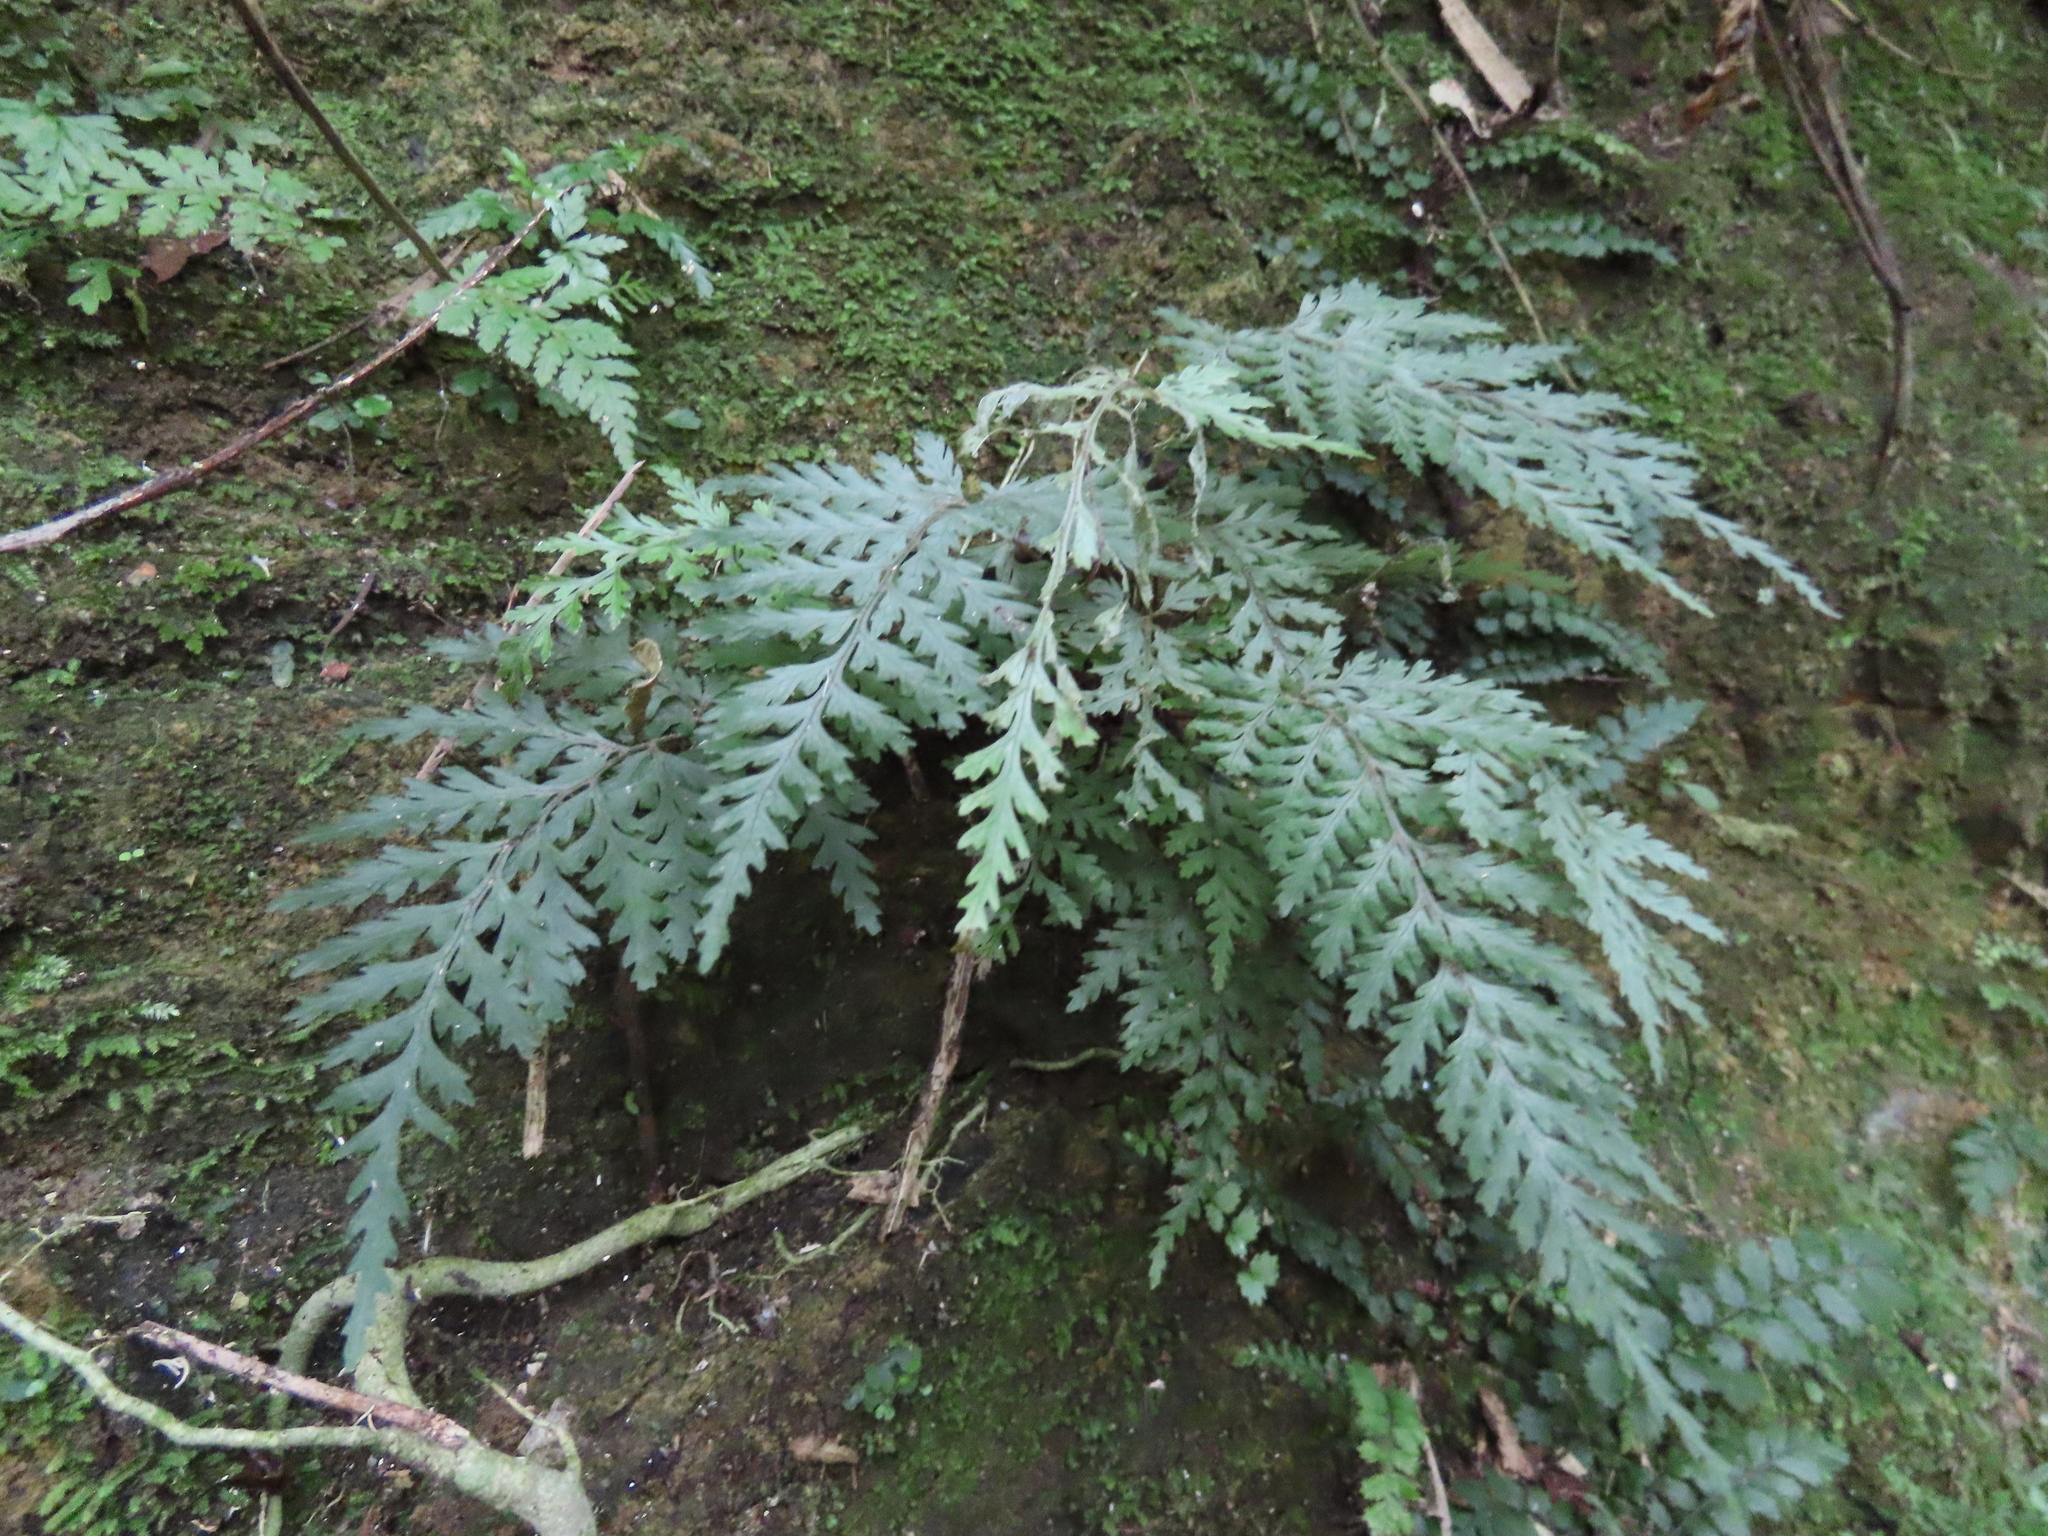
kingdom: Plantae
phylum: Tracheophyta
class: Polypodiopsida
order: Polypodiales
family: Dryopteridaceae
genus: Parapolystichum
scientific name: Parapolystichum glabellum
